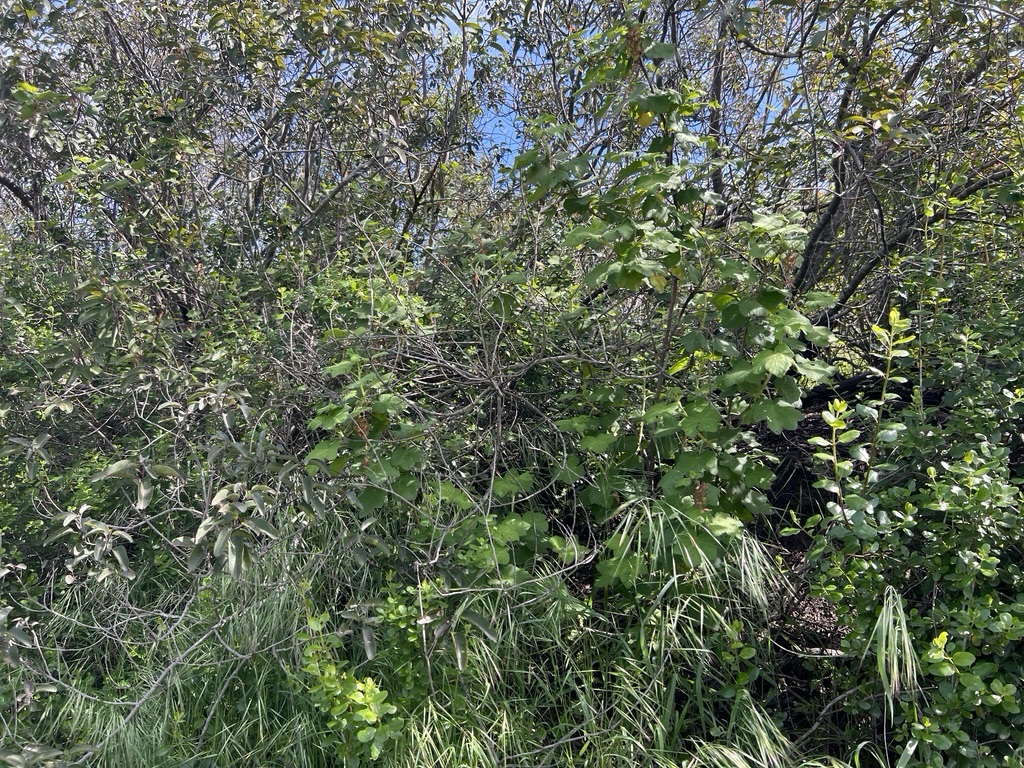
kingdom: Plantae
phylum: Tracheophyta
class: Magnoliopsida
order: Saxifragales
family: Grossulariaceae
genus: Ribes
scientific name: Ribes malvaceum
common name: Chaparral currant
